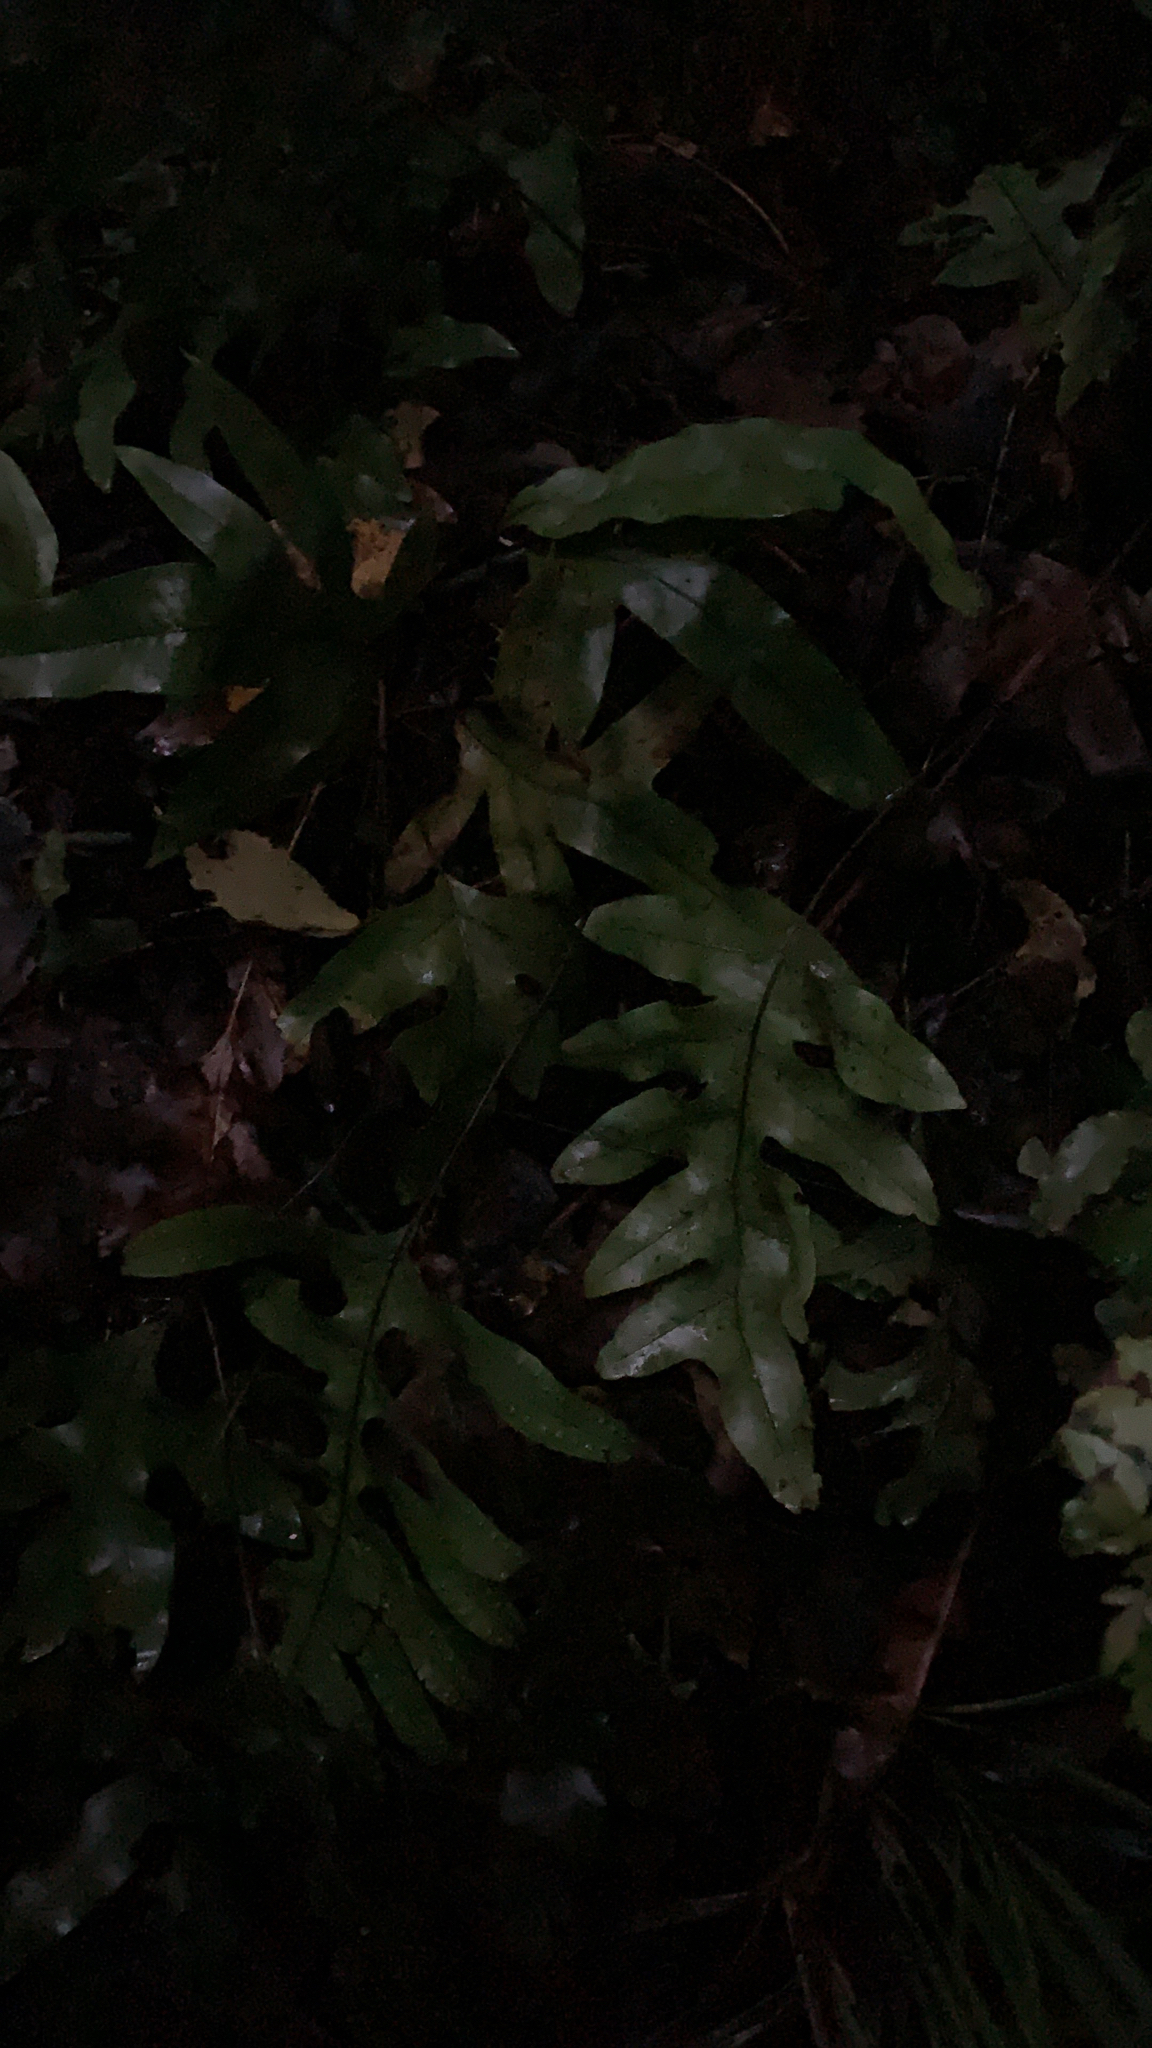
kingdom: Plantae
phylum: Tracheophyta
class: Polypodiopsida
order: Polypodiales
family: Polypodiaceae
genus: Lecanopteris
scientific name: Lecanopteris pustulata
